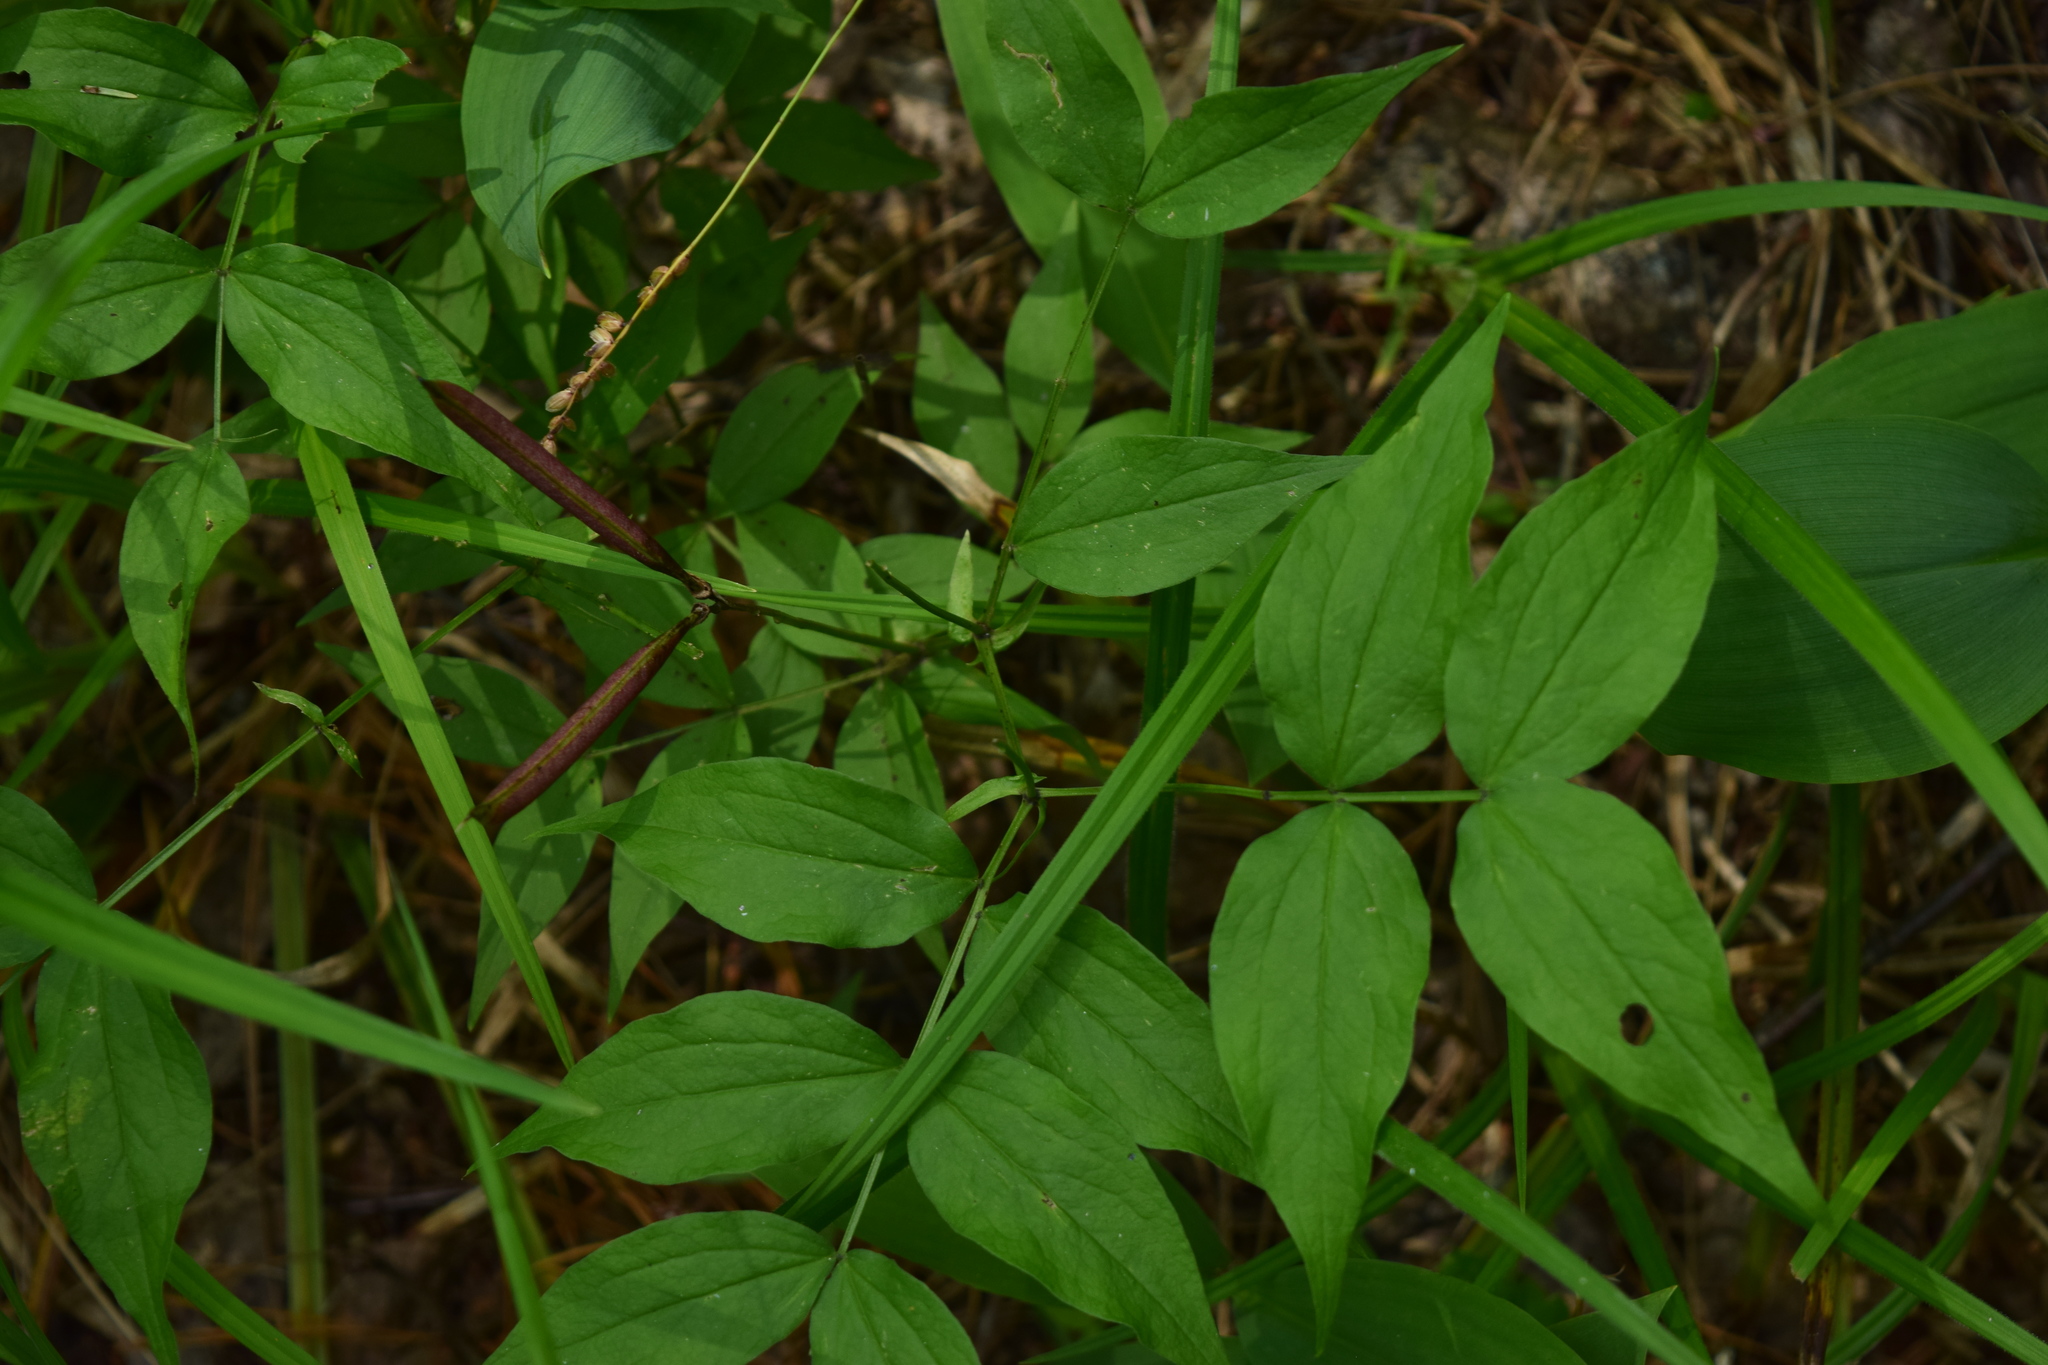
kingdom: Plantae
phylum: Tracheophyta
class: Magnoliopsida
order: Fabales
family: Fabaceae
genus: Lathyrus
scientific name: Lathyrus vernus
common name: Spring pea
